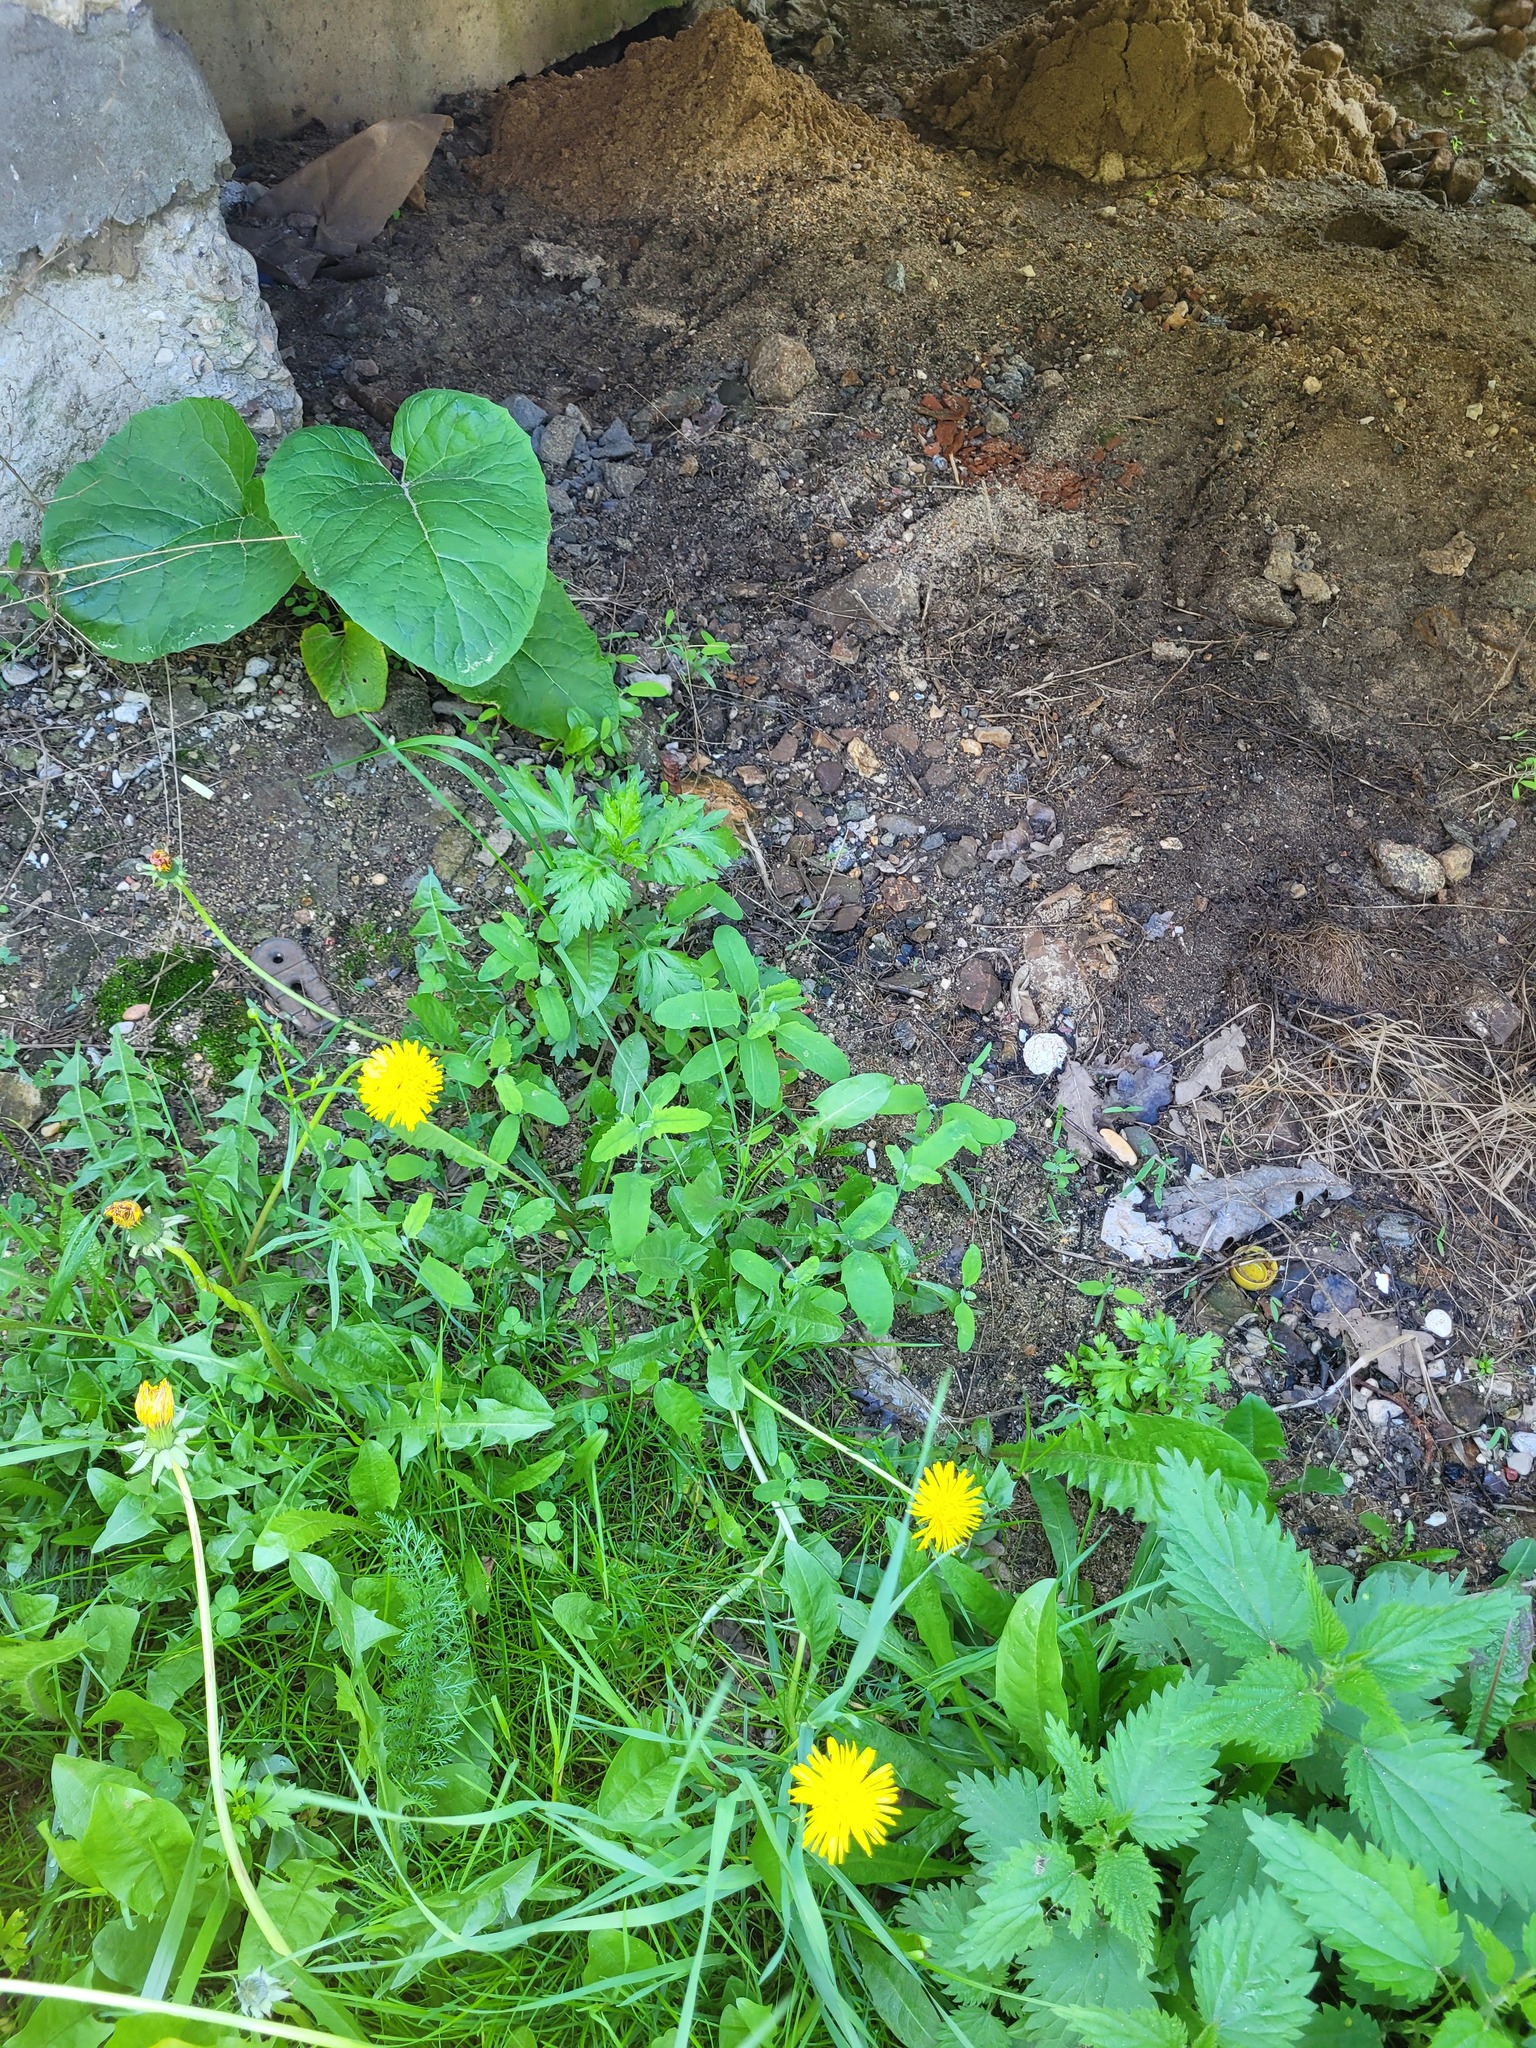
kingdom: Plantae
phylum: Tracheophyta
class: Magnoliopsida
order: Caryophyllales
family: Amaranthaceae
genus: Atriplex
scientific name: Atriplex patula
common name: Common orache
